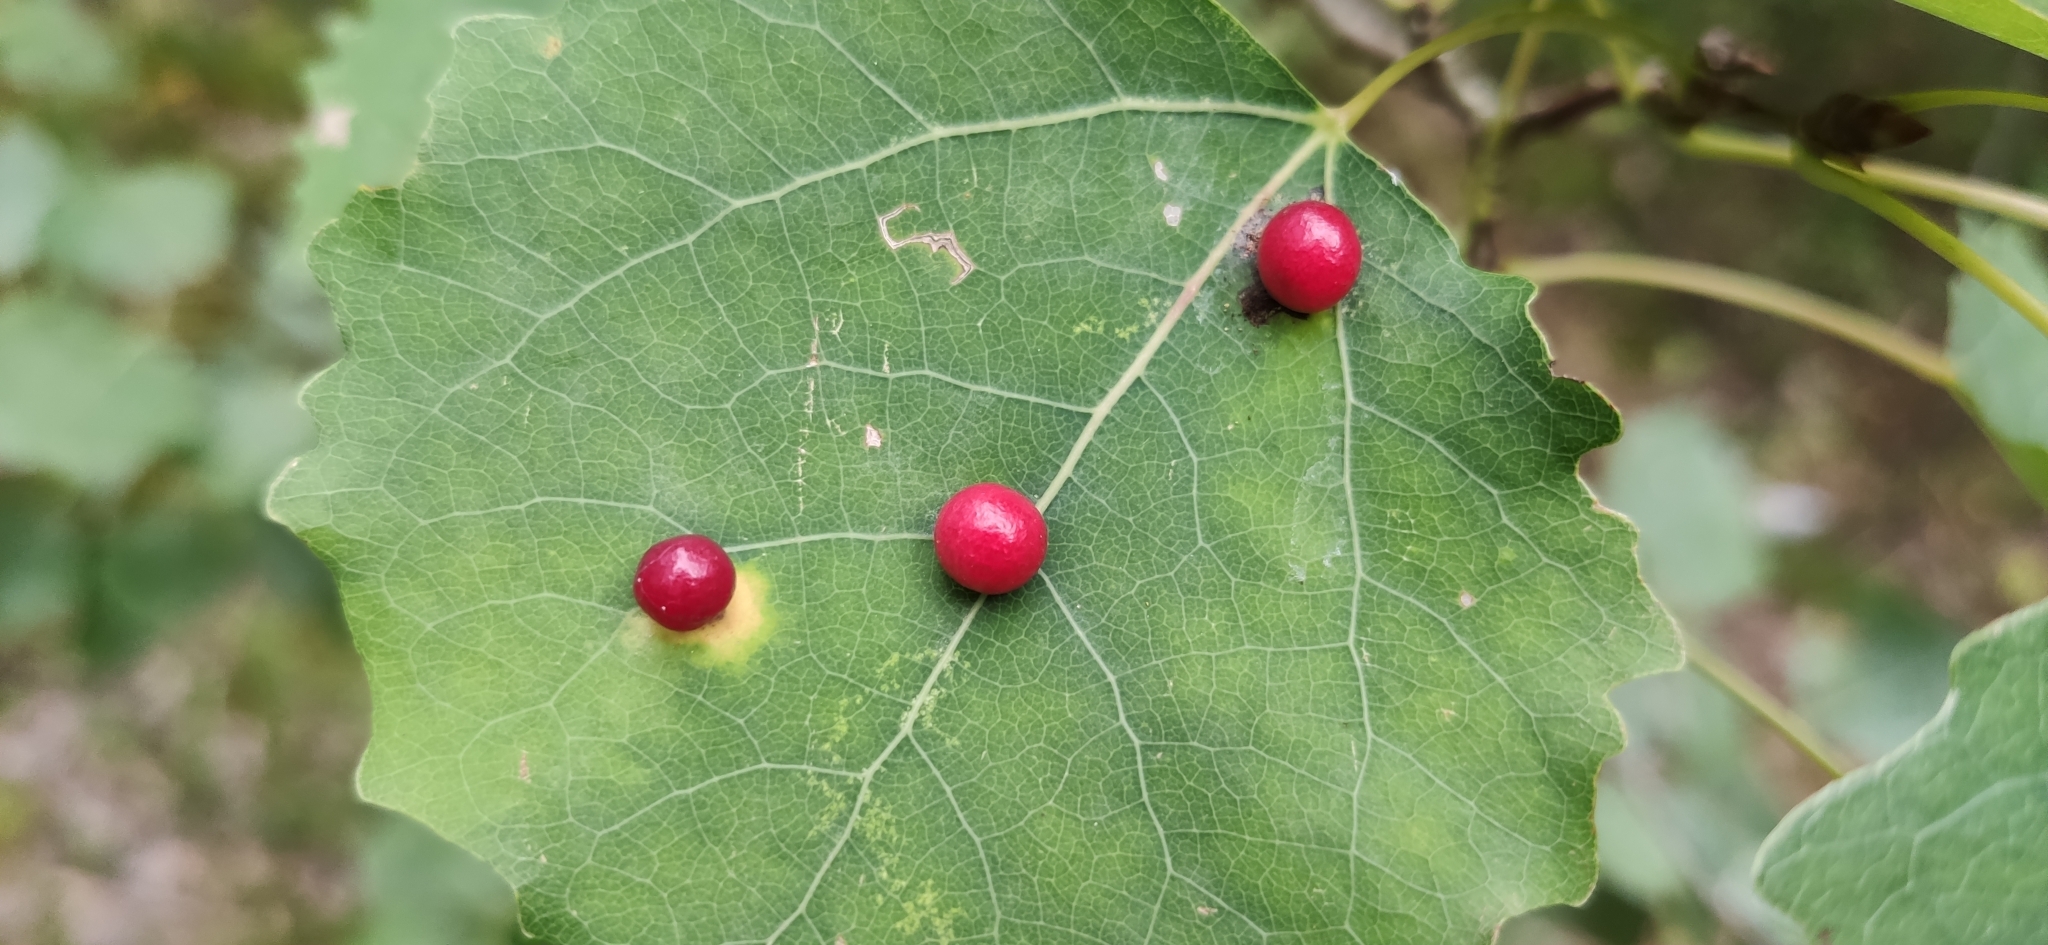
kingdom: Animalia
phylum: Arthropoda
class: Insecta
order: Diptera
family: Cecidomyiidae
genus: Harmandiola
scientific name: Harmandiola tremulae
